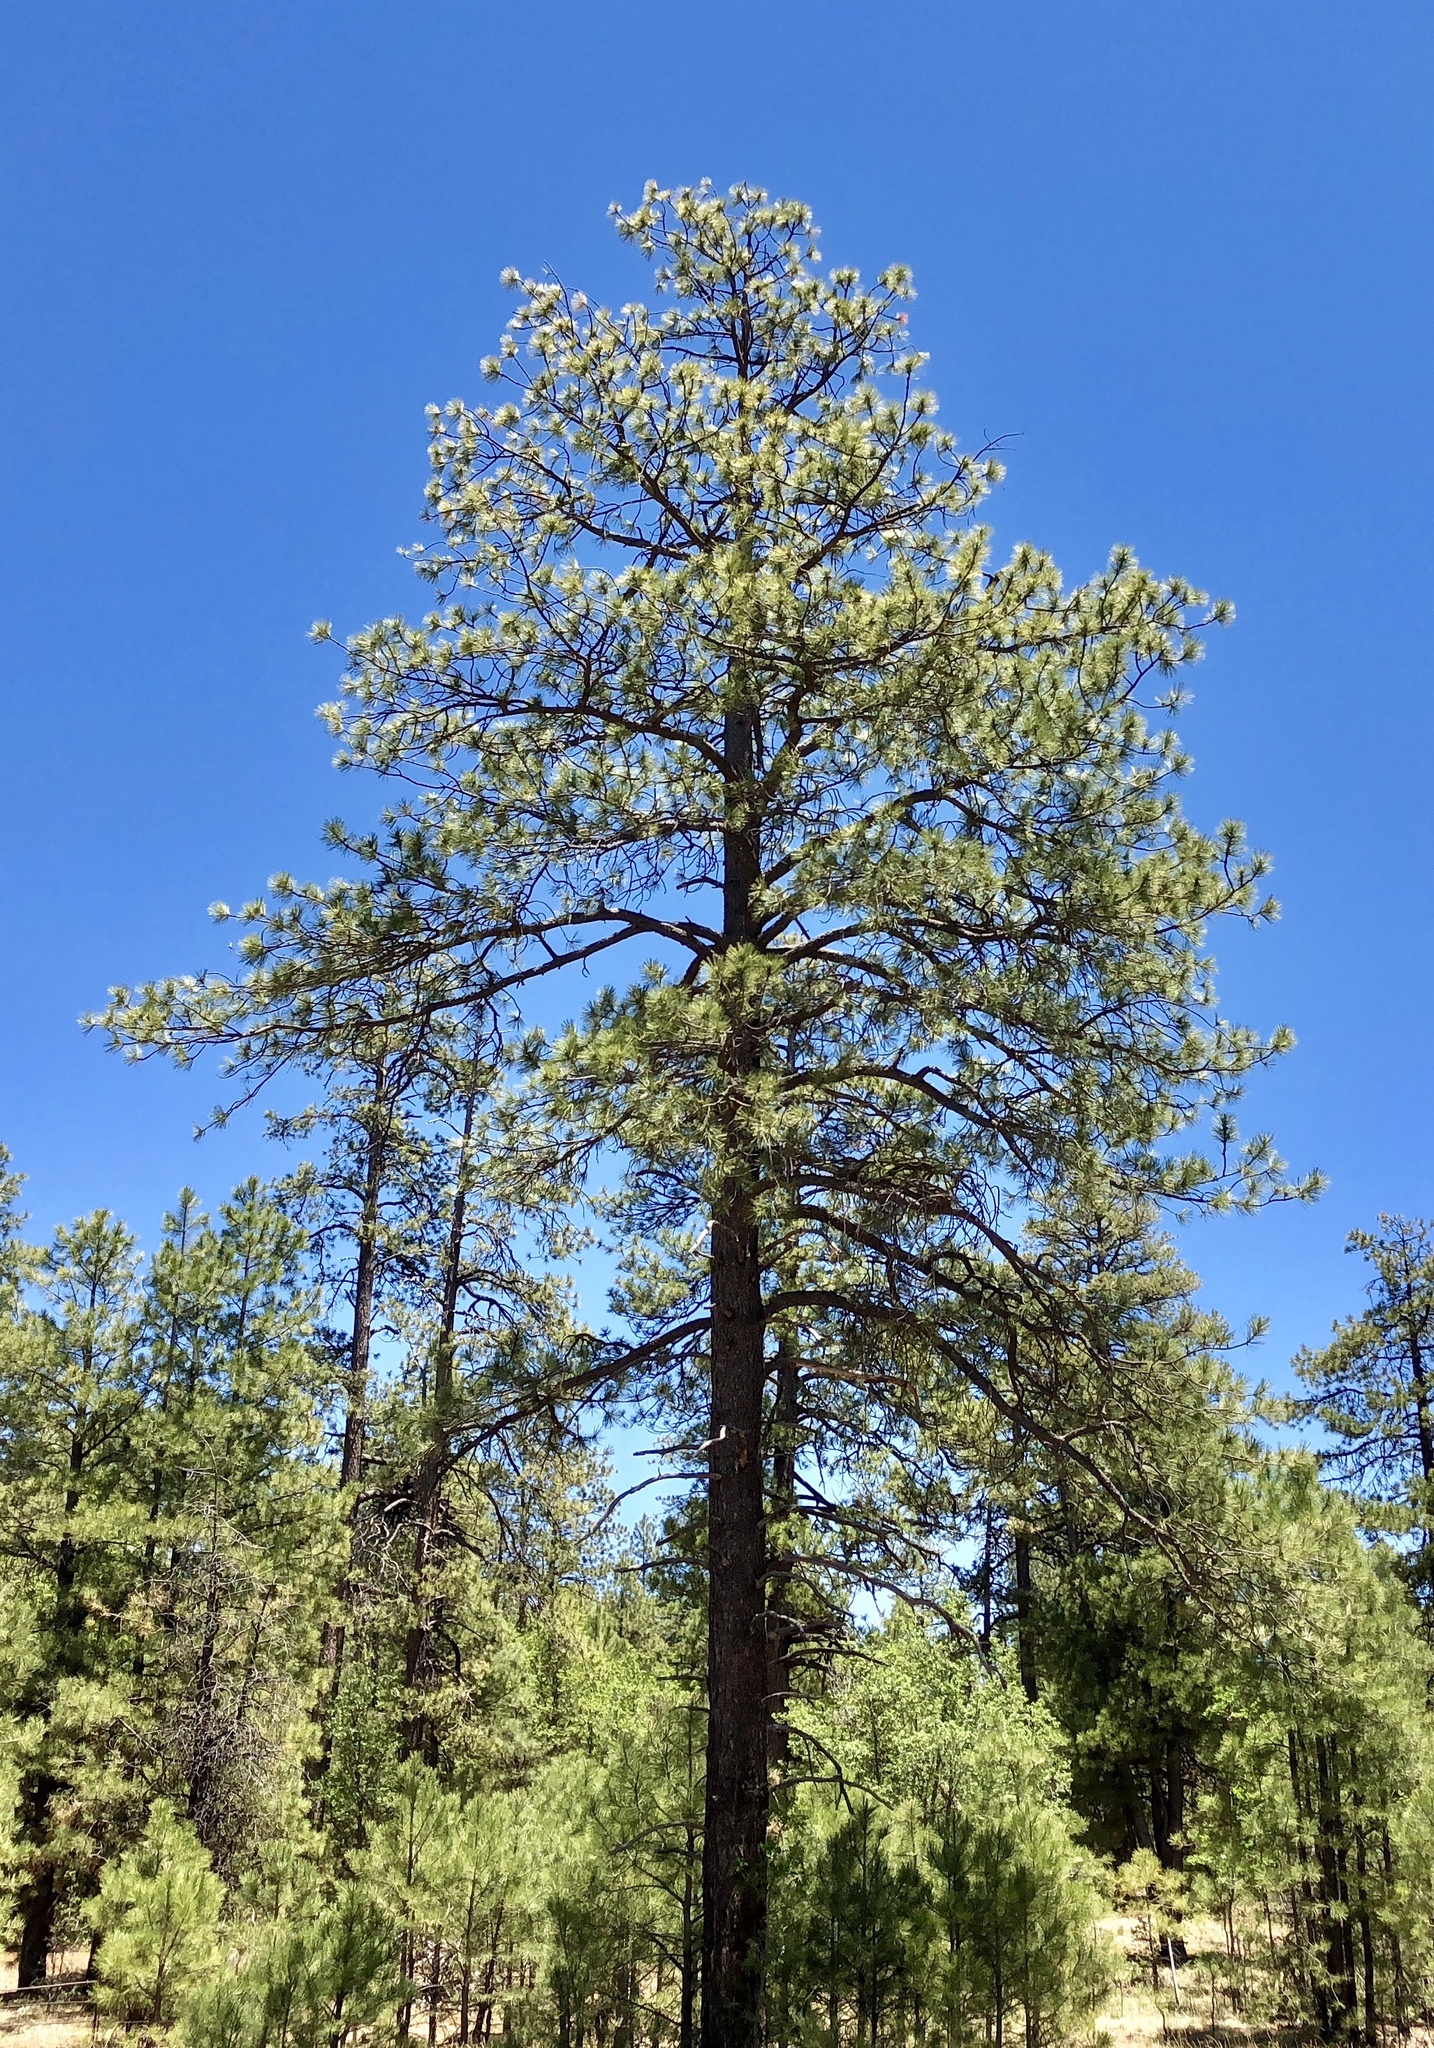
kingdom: Plantae
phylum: Tracheophyta
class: Pinopsida
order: Pinales
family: Pinaceae
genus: Pinus
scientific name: Pinus ponderosa
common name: Western yellow-pine
